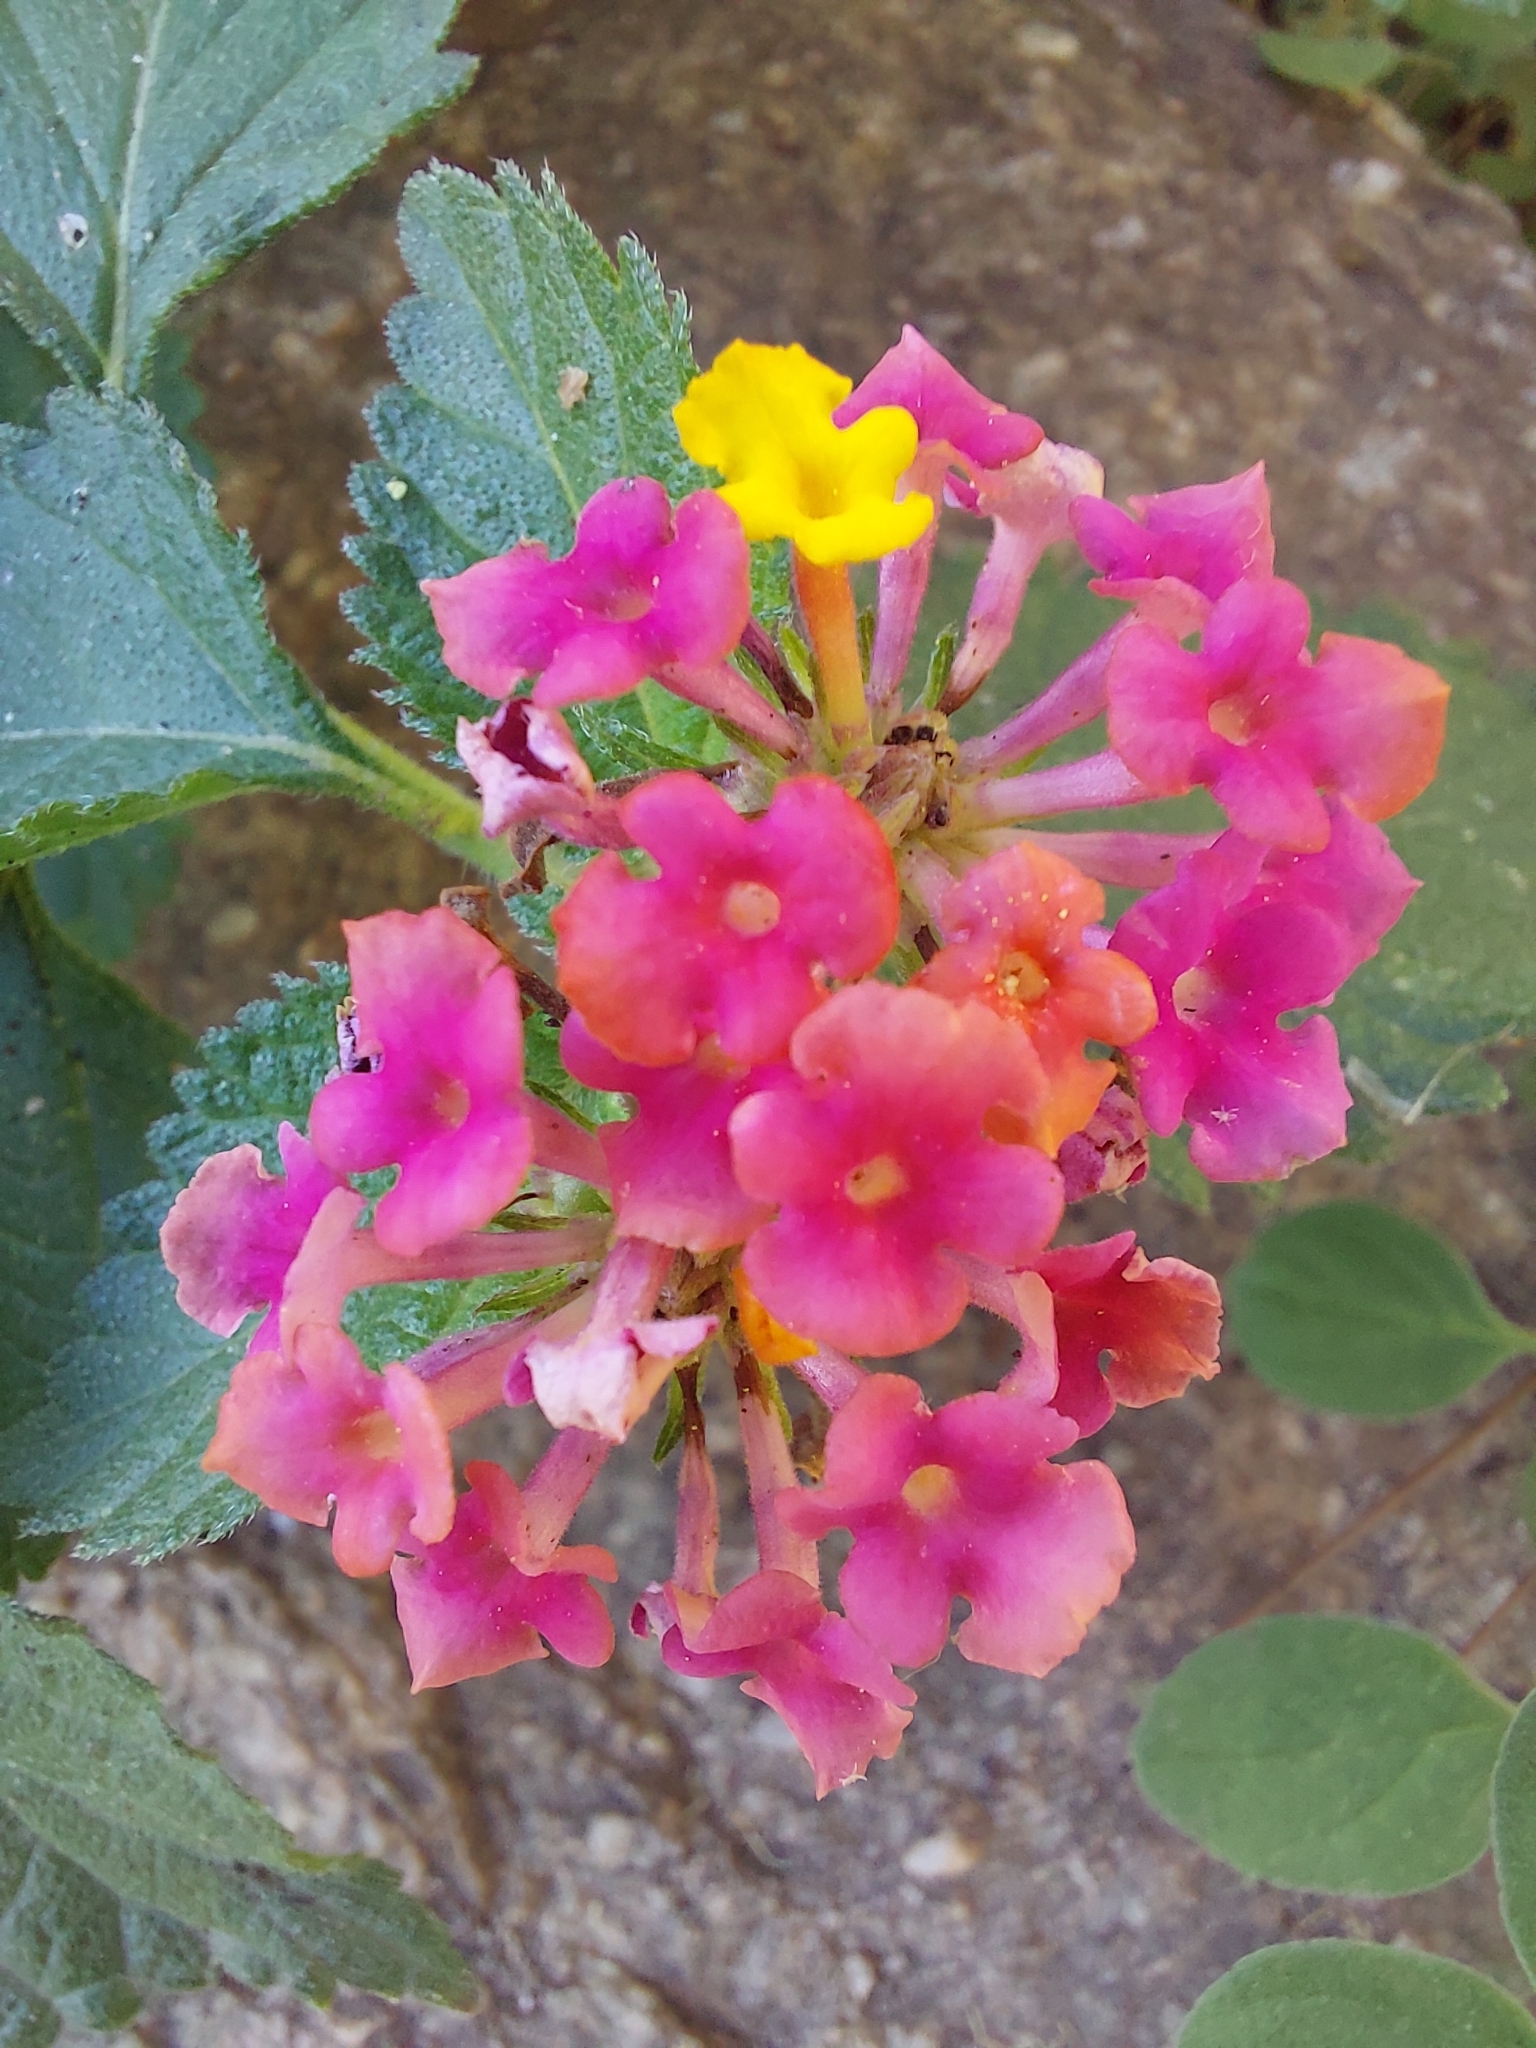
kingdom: Plantae
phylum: Tracheophyta
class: Magnoliopsida
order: Lamiales
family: Verbenaceae
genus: Lantana
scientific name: Lantana camara
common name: Lantana
